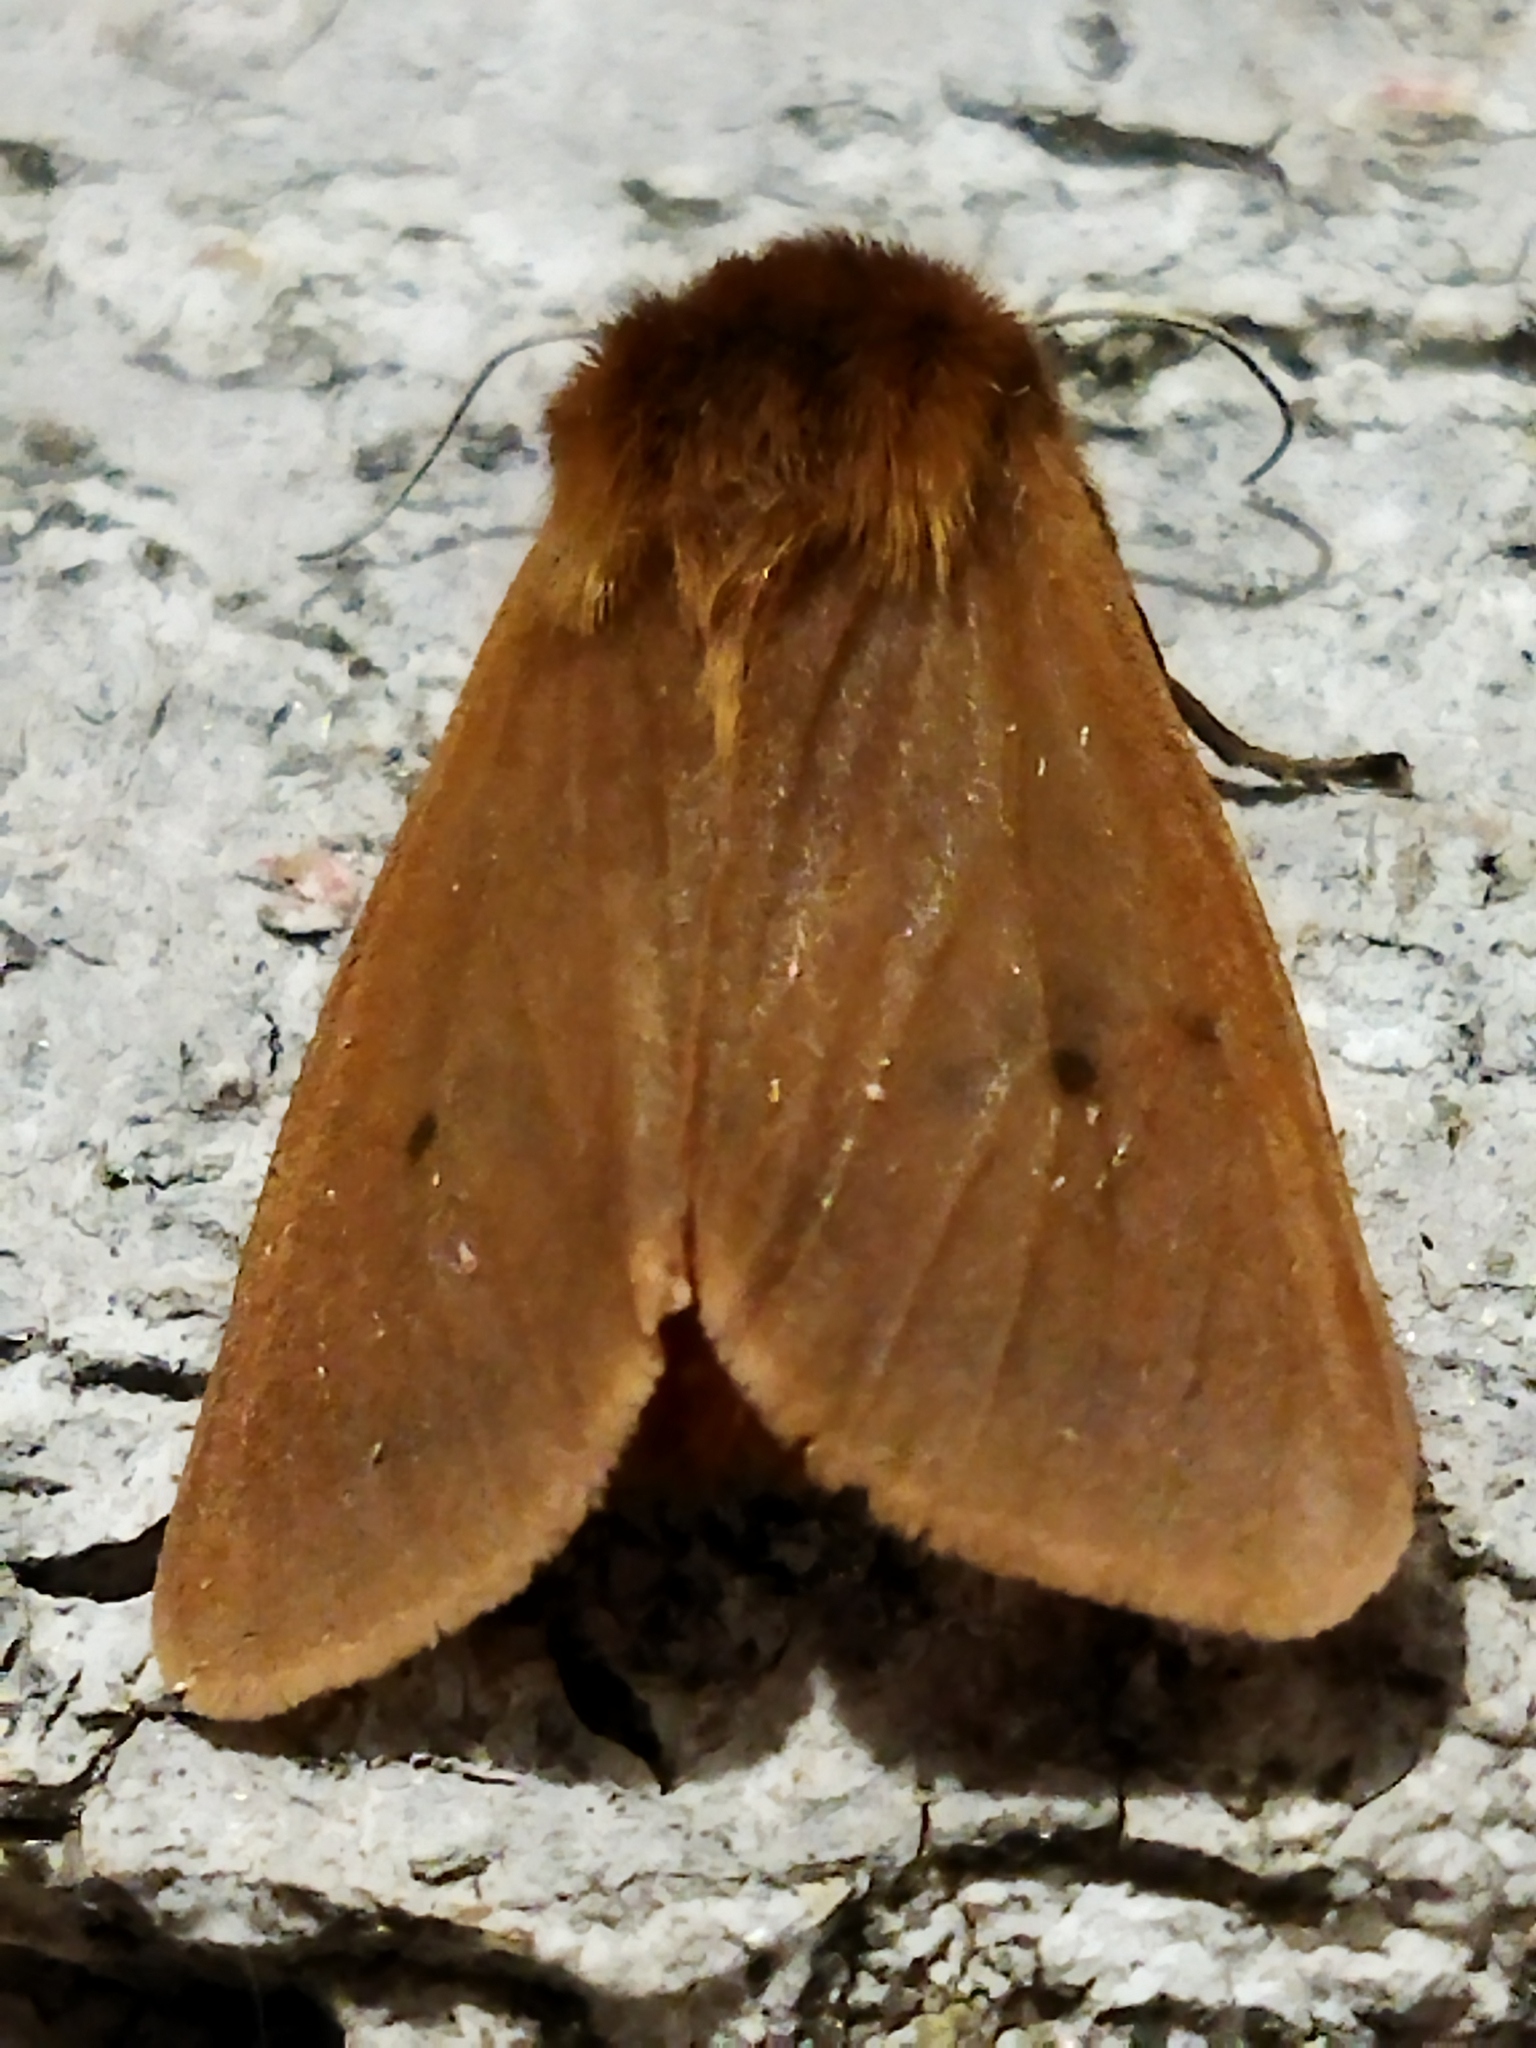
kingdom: Animalia
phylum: Arthropoda
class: Insecta
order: Lepidoptera
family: Erebidae
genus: Phragmatobia
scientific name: Phragmatobia fuliginosa
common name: Ruby tiger
